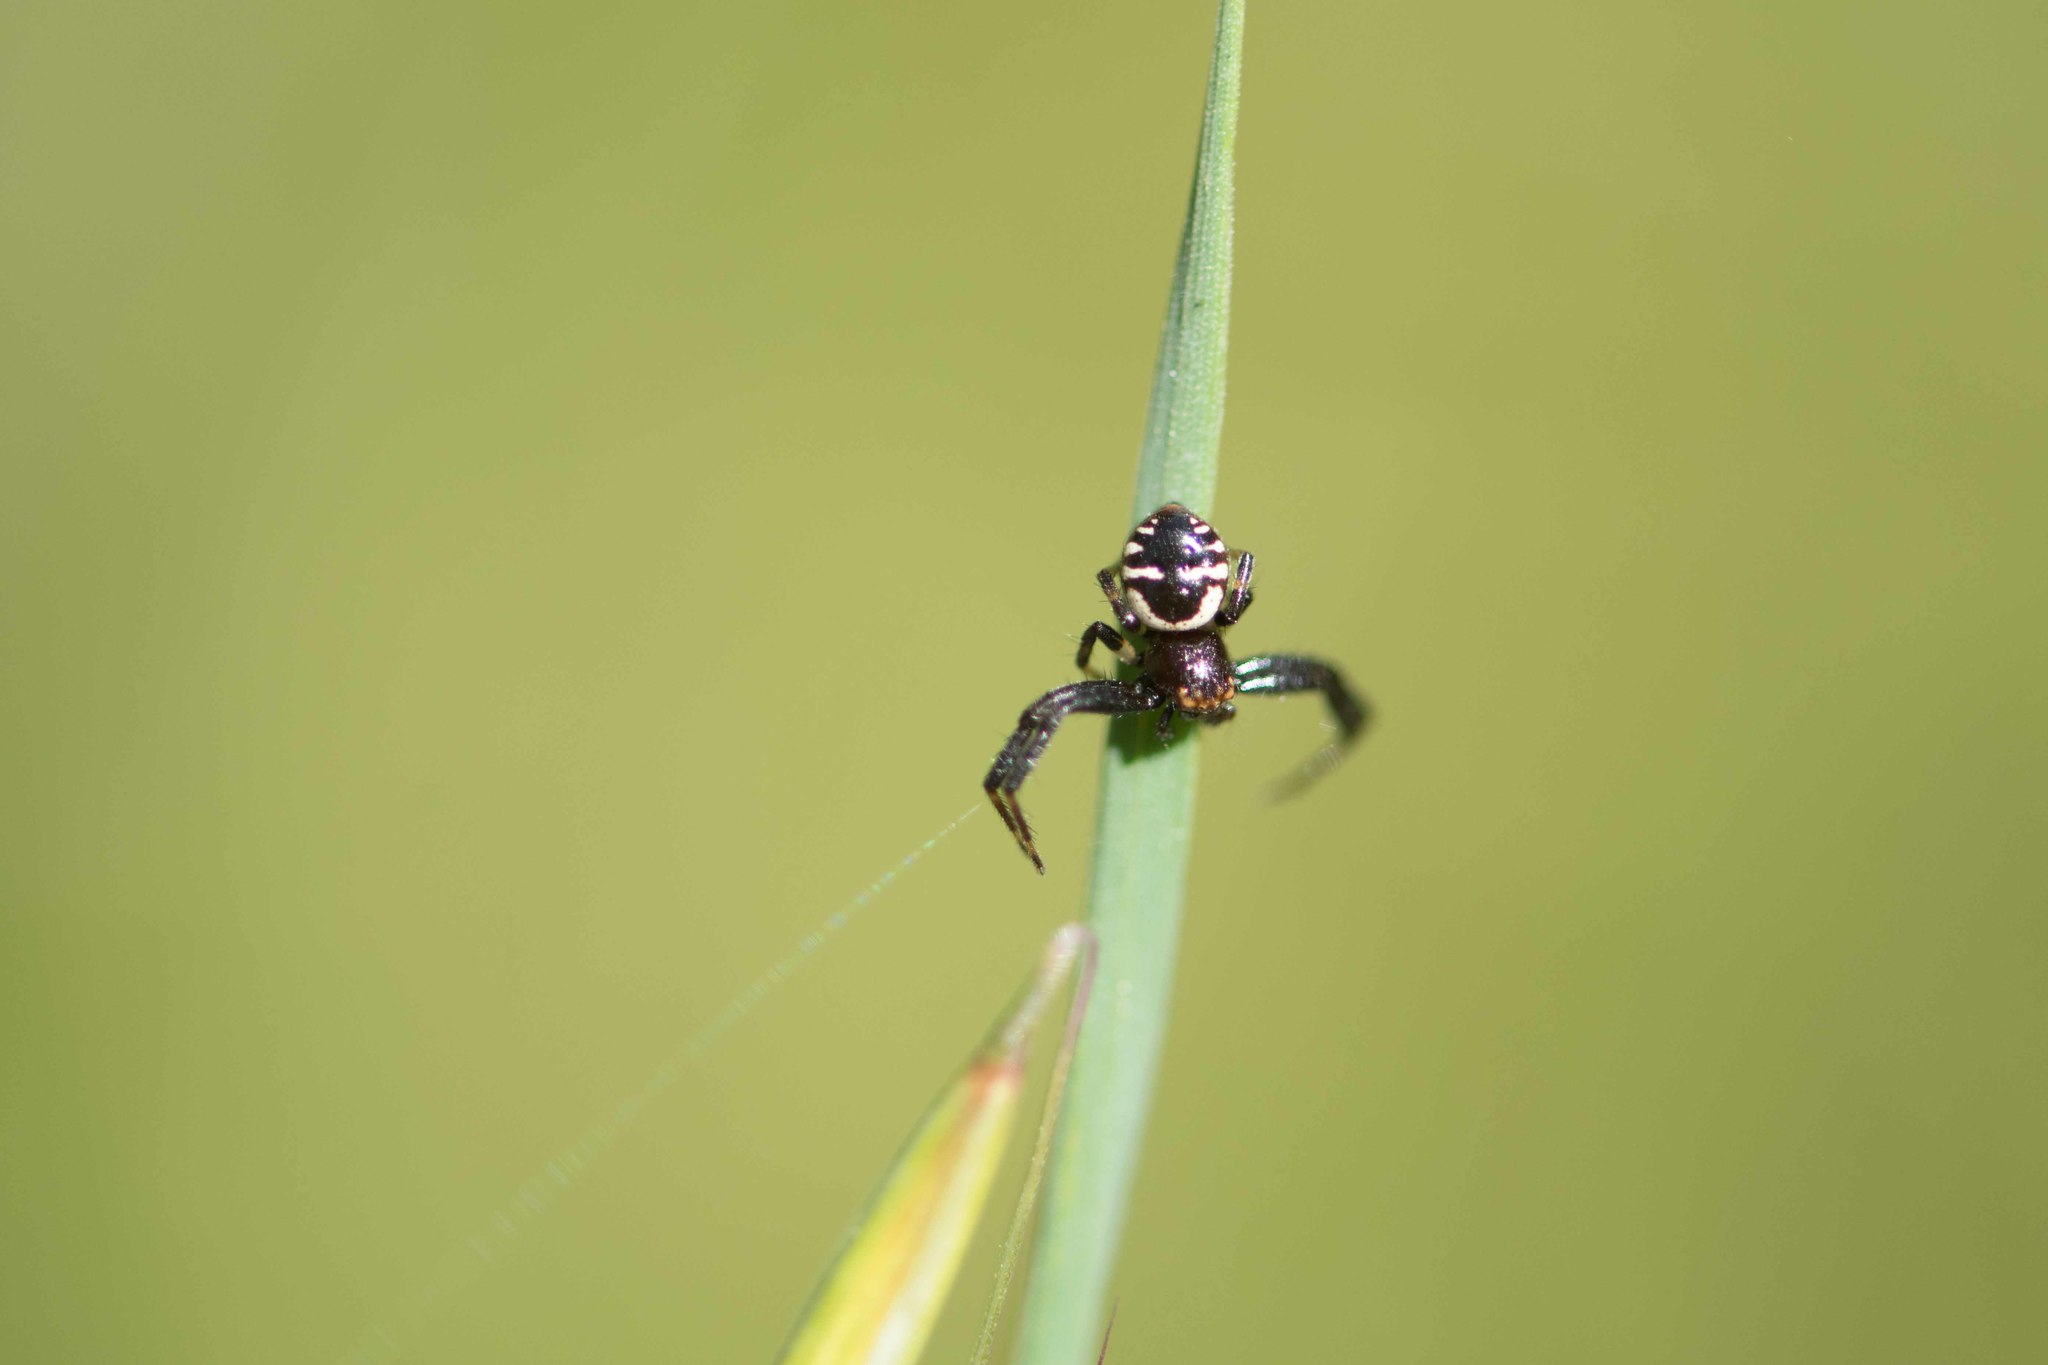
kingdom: Animalia
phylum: Arthropoda
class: Arachnida
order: Araneae
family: Thomisidae
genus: Synema
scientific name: Synema globosum
